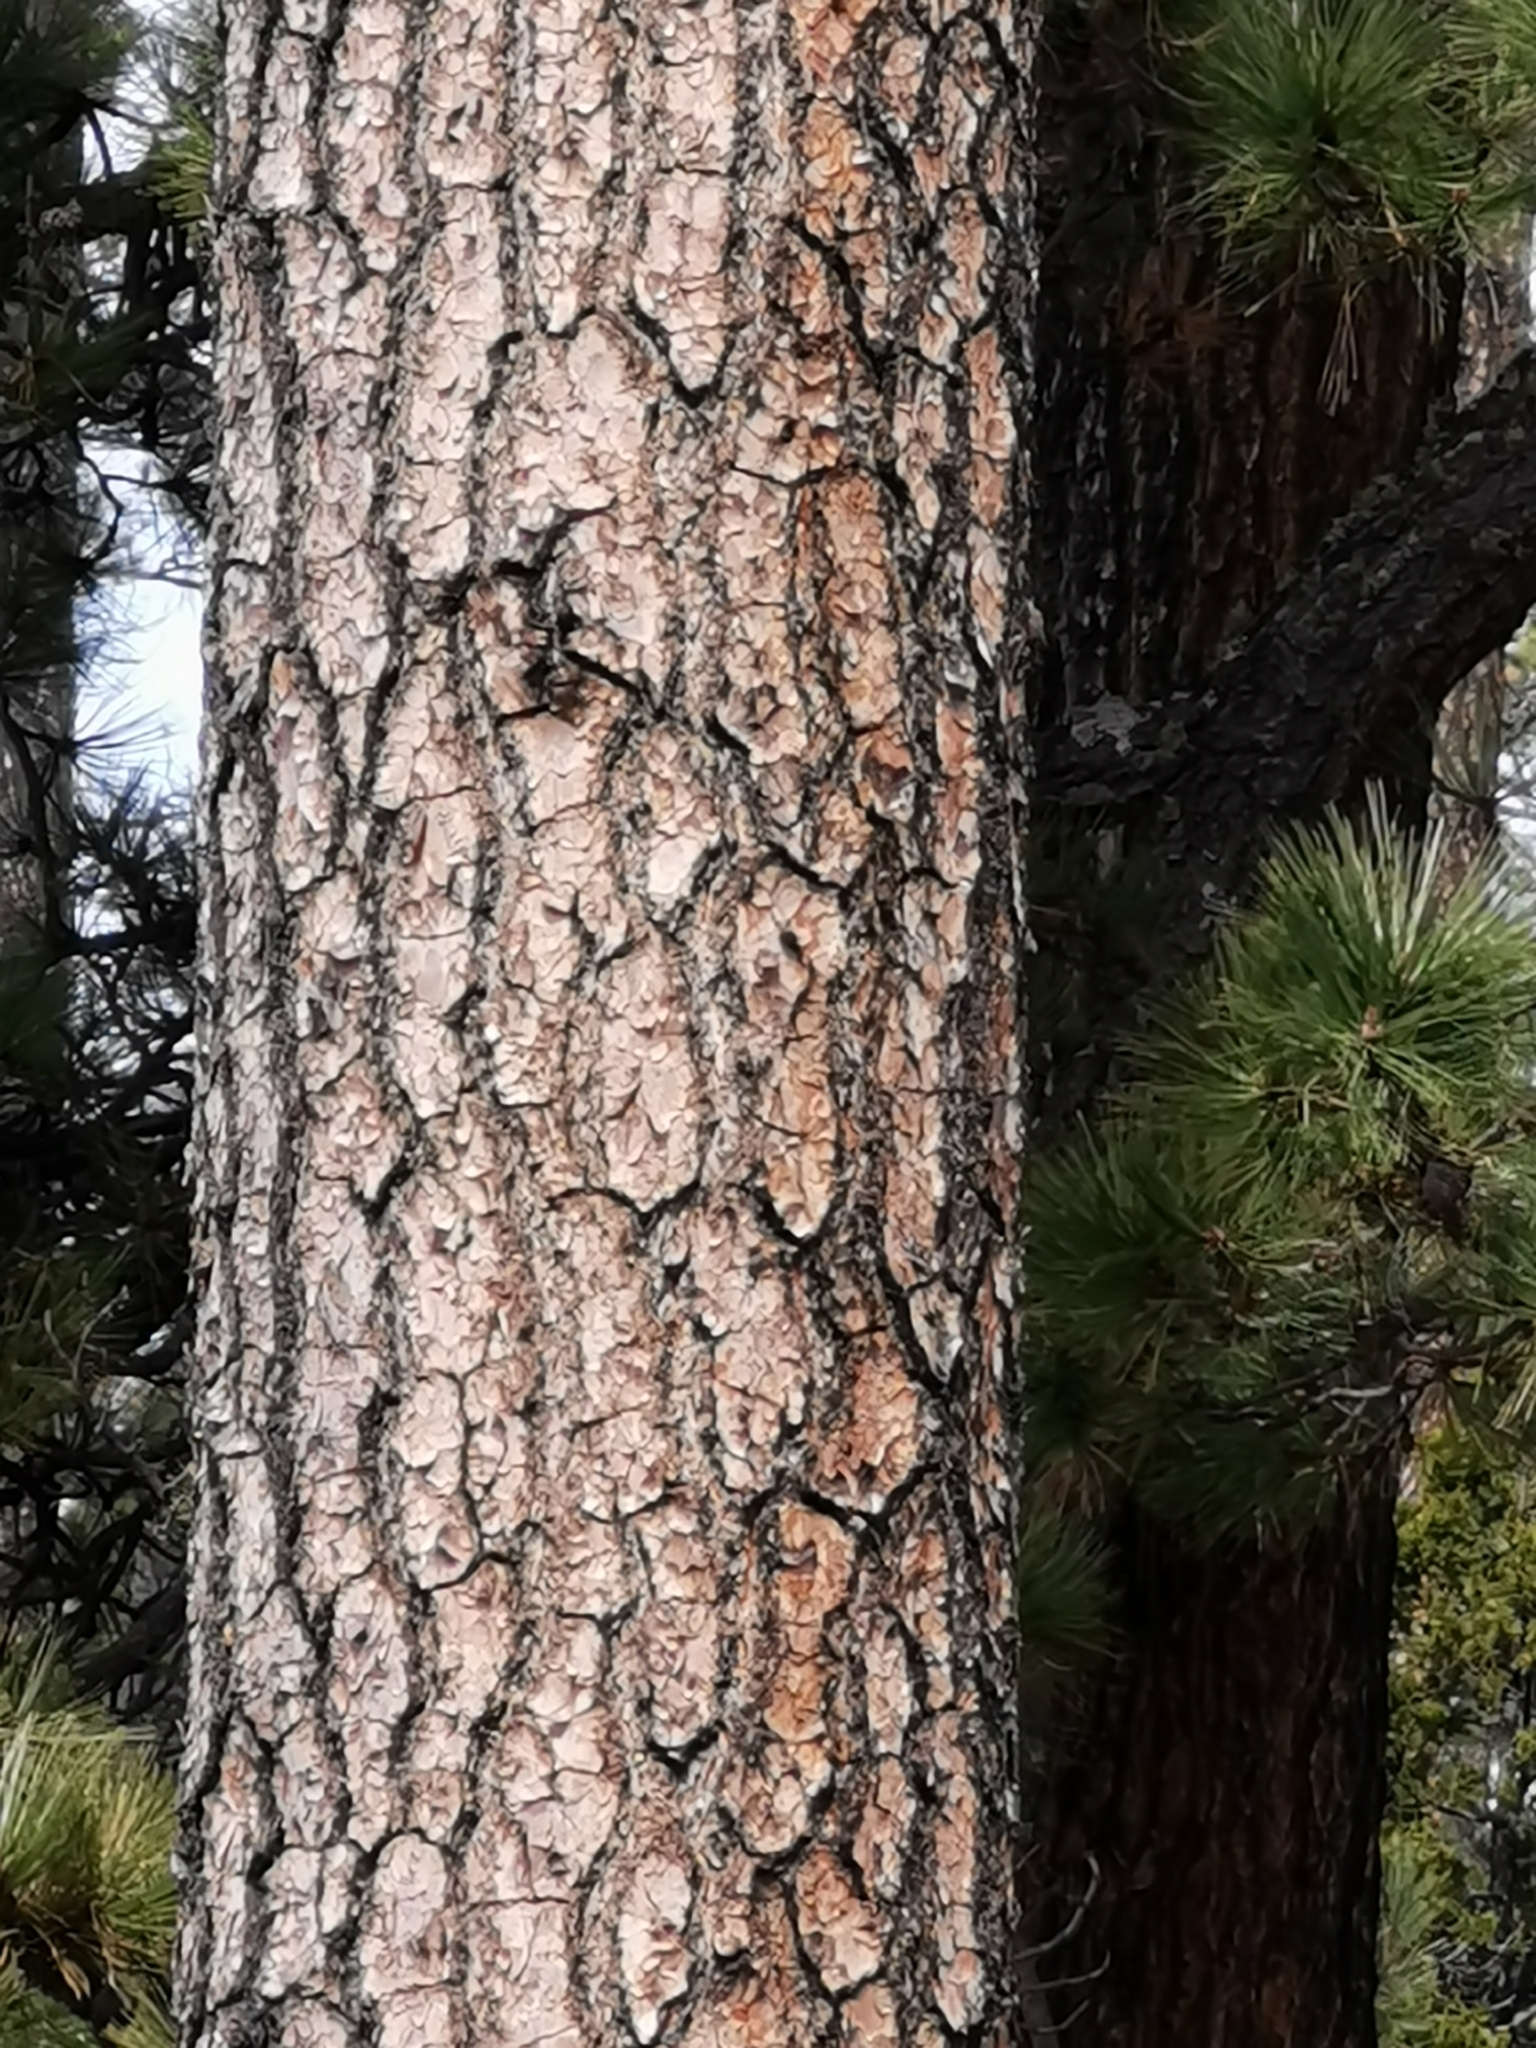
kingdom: Plantae
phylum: Tracheophyta
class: Pinopsida
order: Pinales
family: Pinaceae
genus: Pinus
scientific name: Pinus arizonica
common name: Arizona pine
